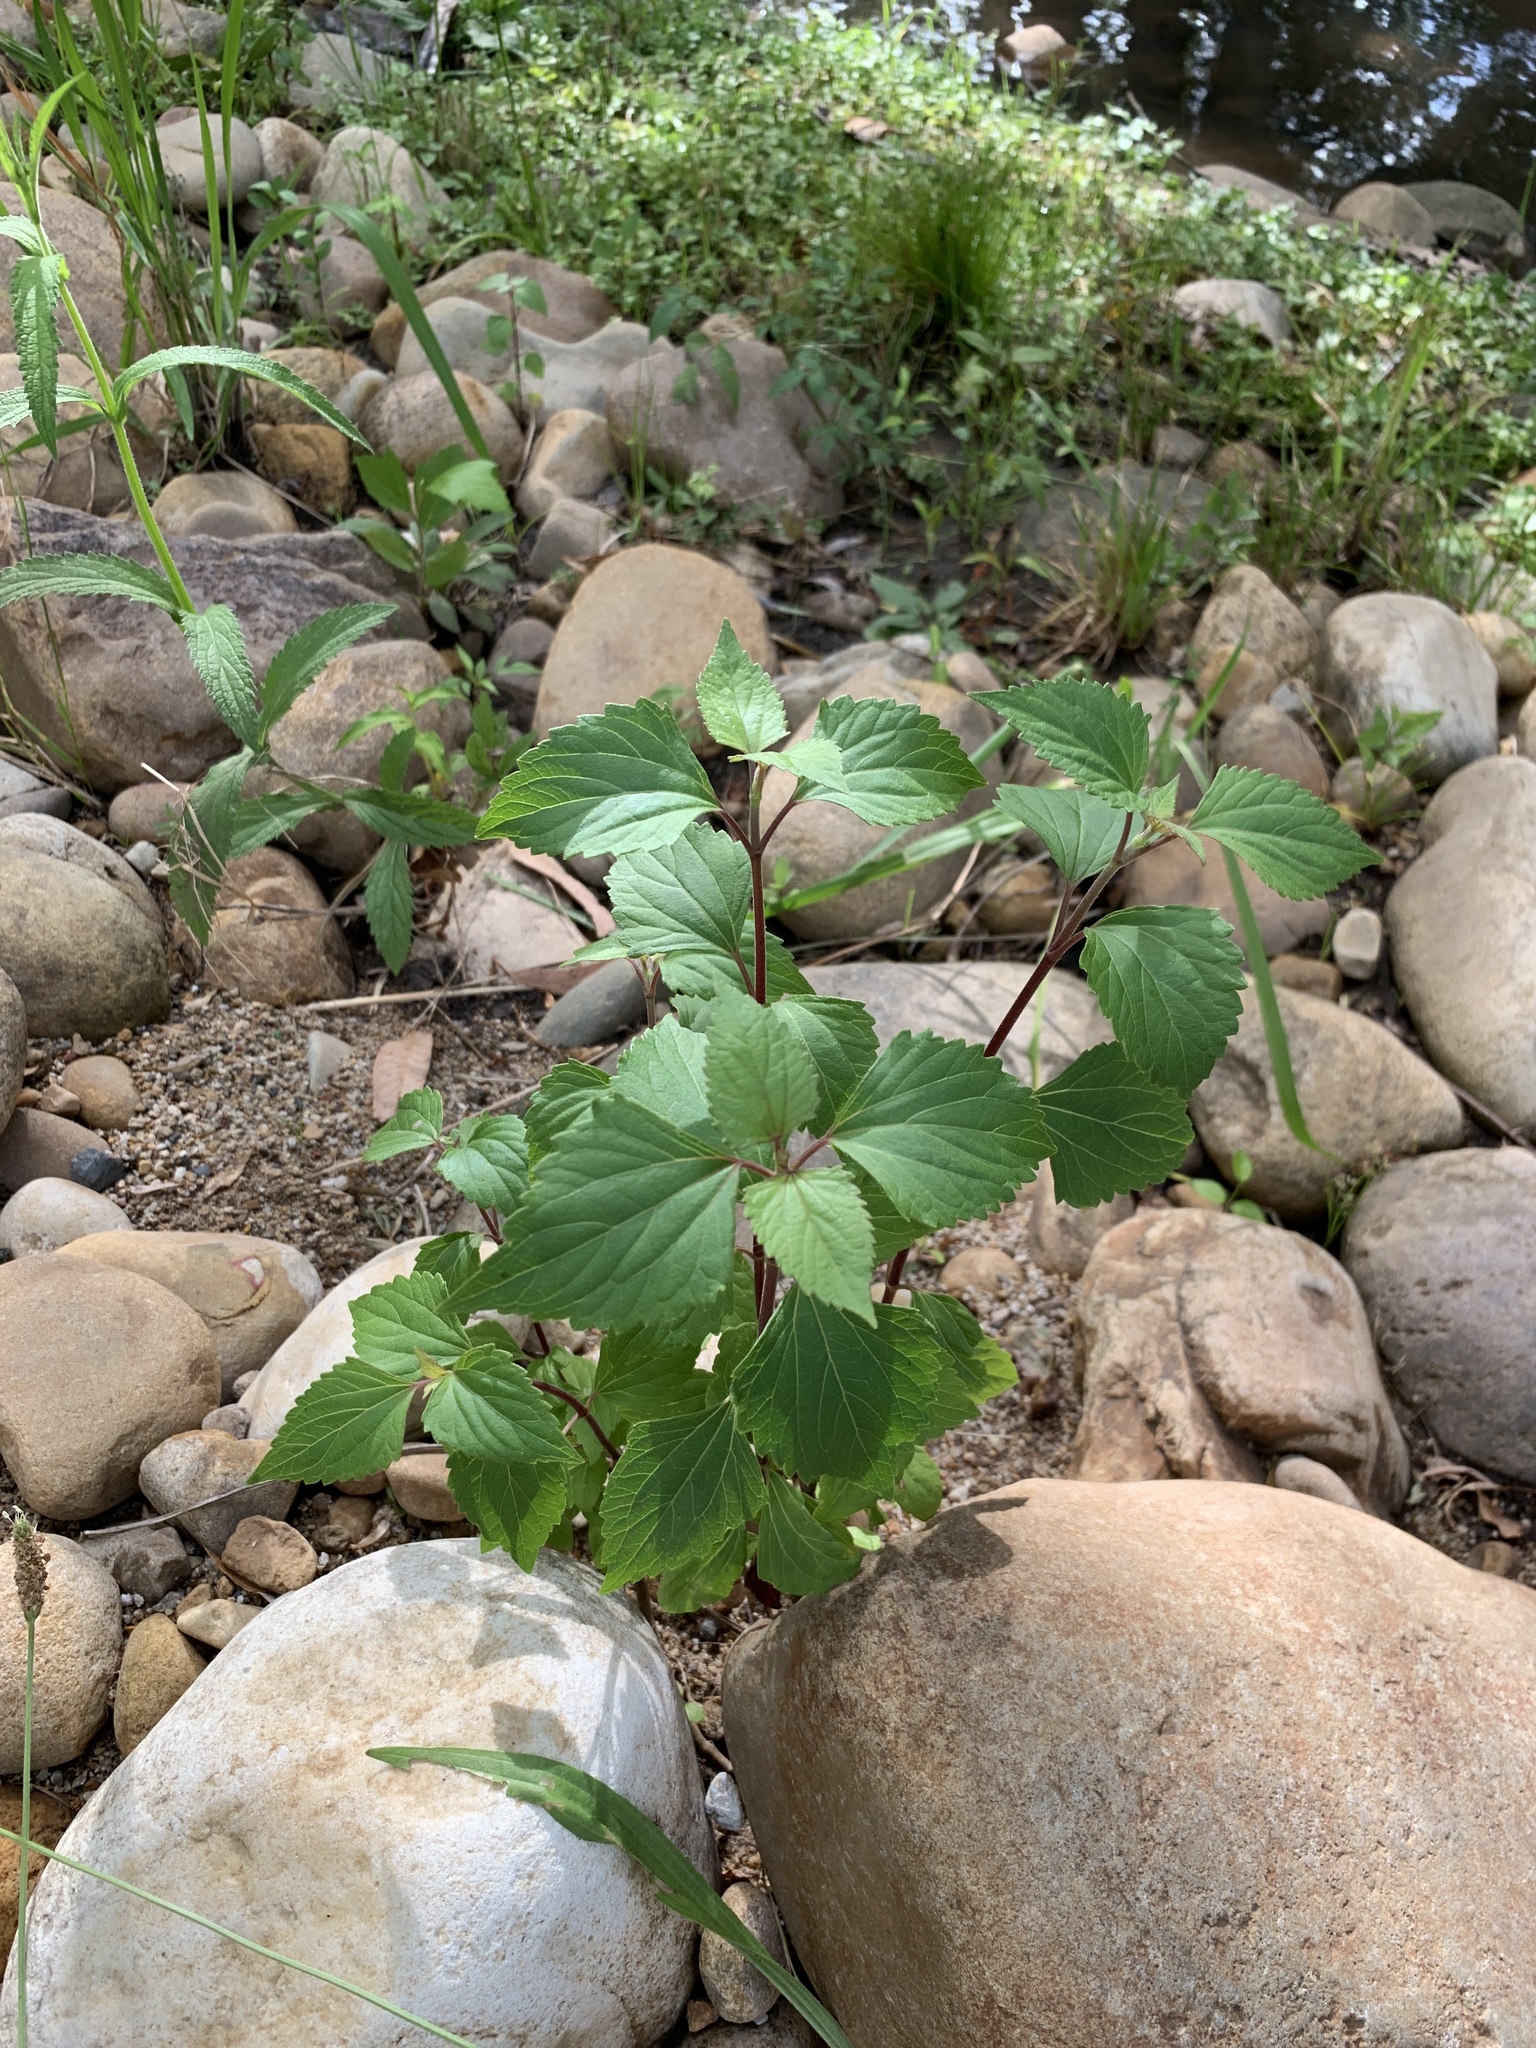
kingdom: Plantae
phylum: Tracheophyta
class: Magnoliopsida
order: Asterales
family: Asteraceae
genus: Ageratina
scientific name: Ageratina adenophora
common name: Sticky snakeroot
